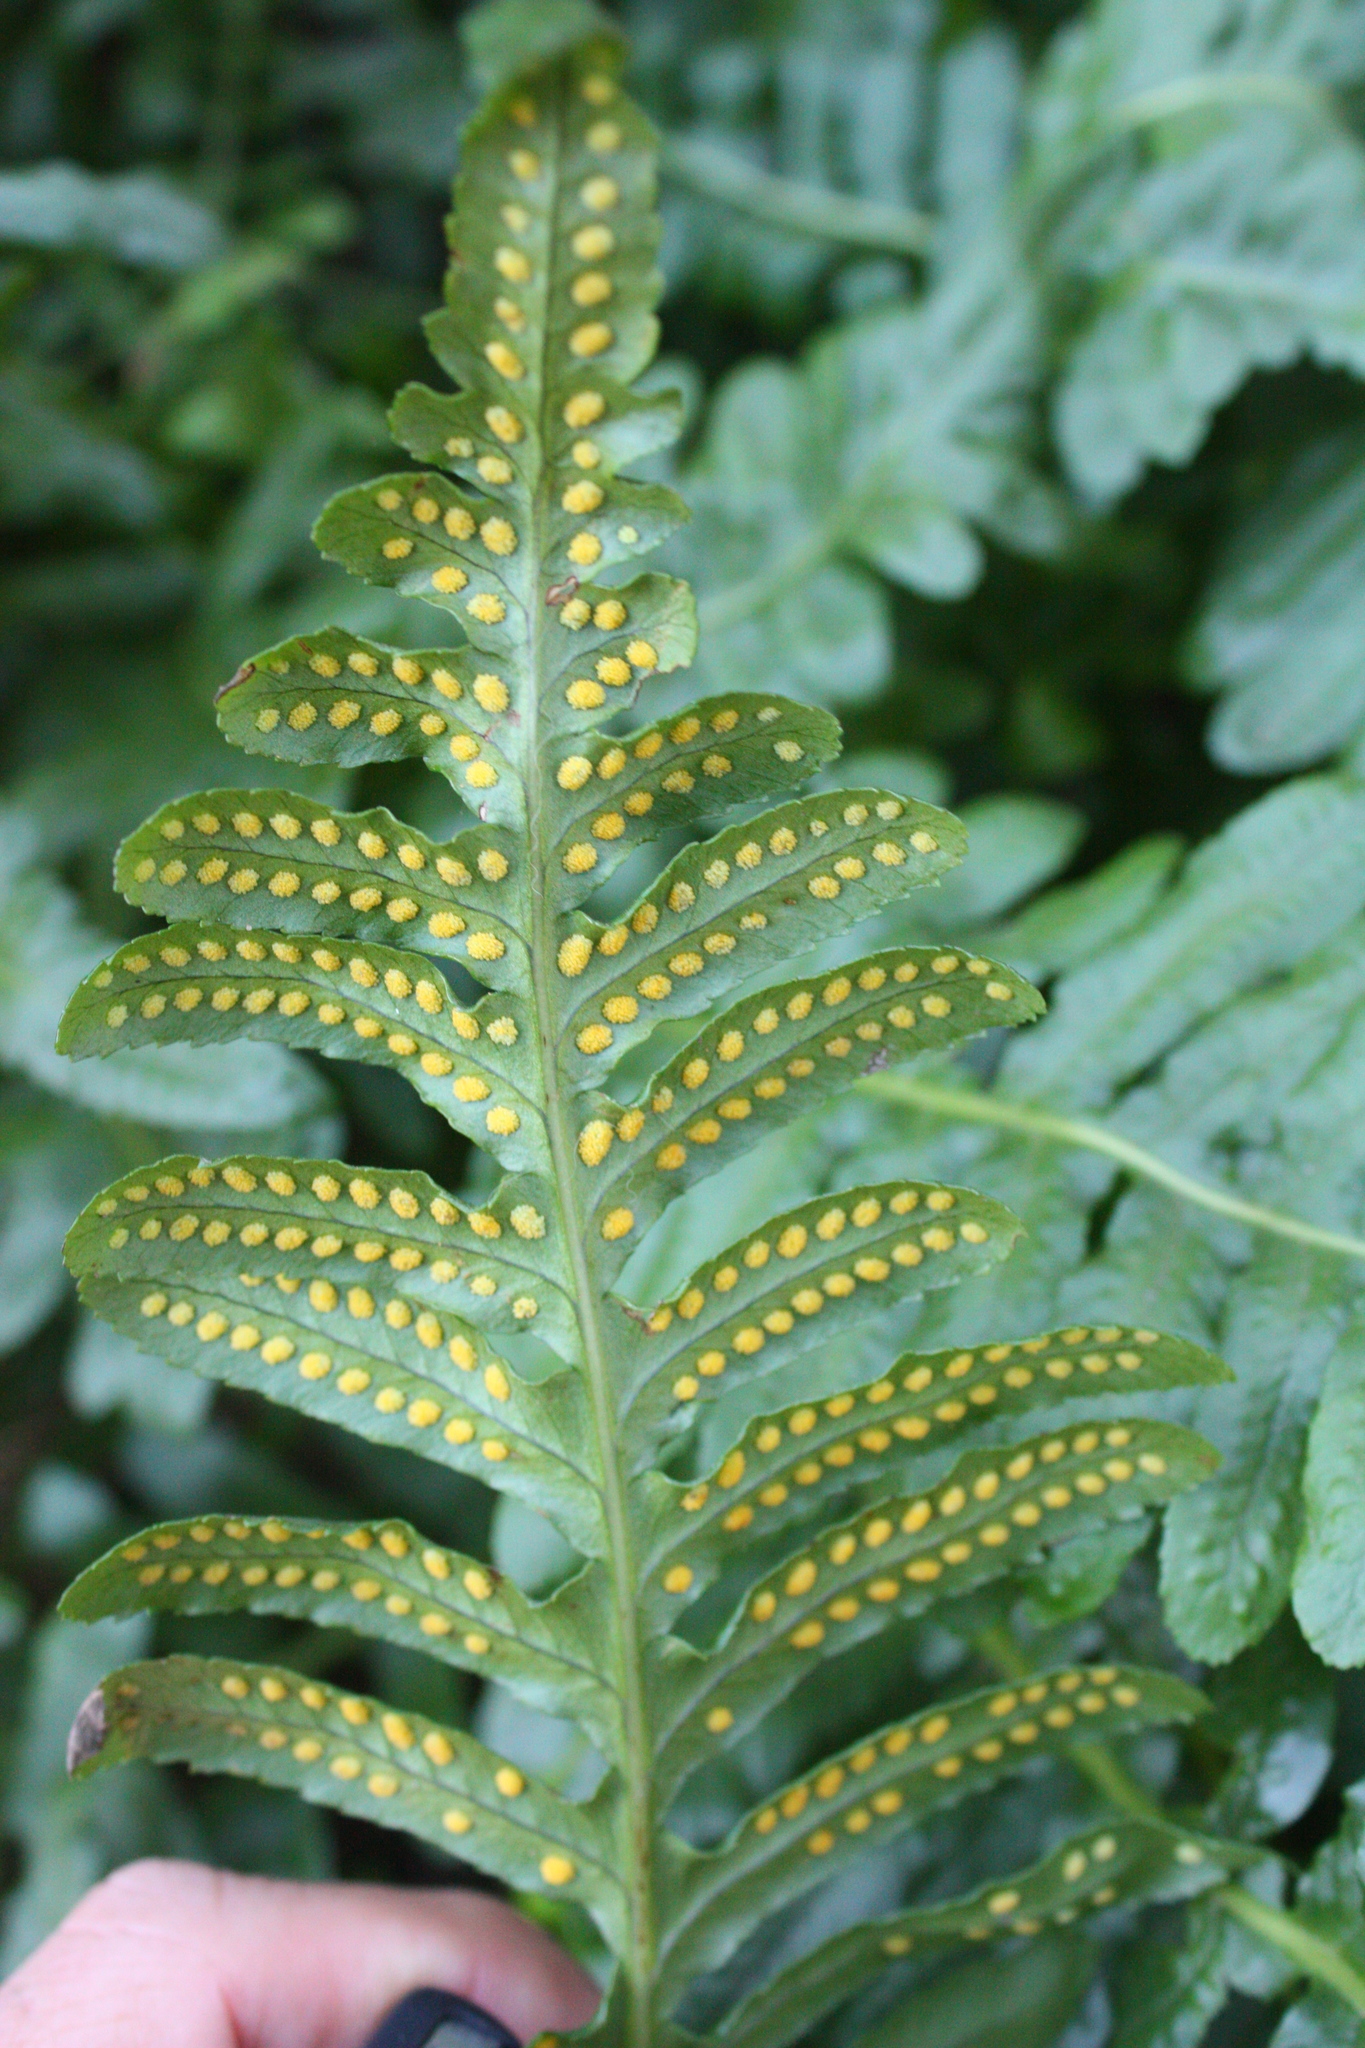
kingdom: Plantae
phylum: Tracheophyta
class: Polypodiopsida
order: Polypodiales
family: Polypodiaceae
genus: Polypodium
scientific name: Polypodium scouleri
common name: Scouler's polypody
